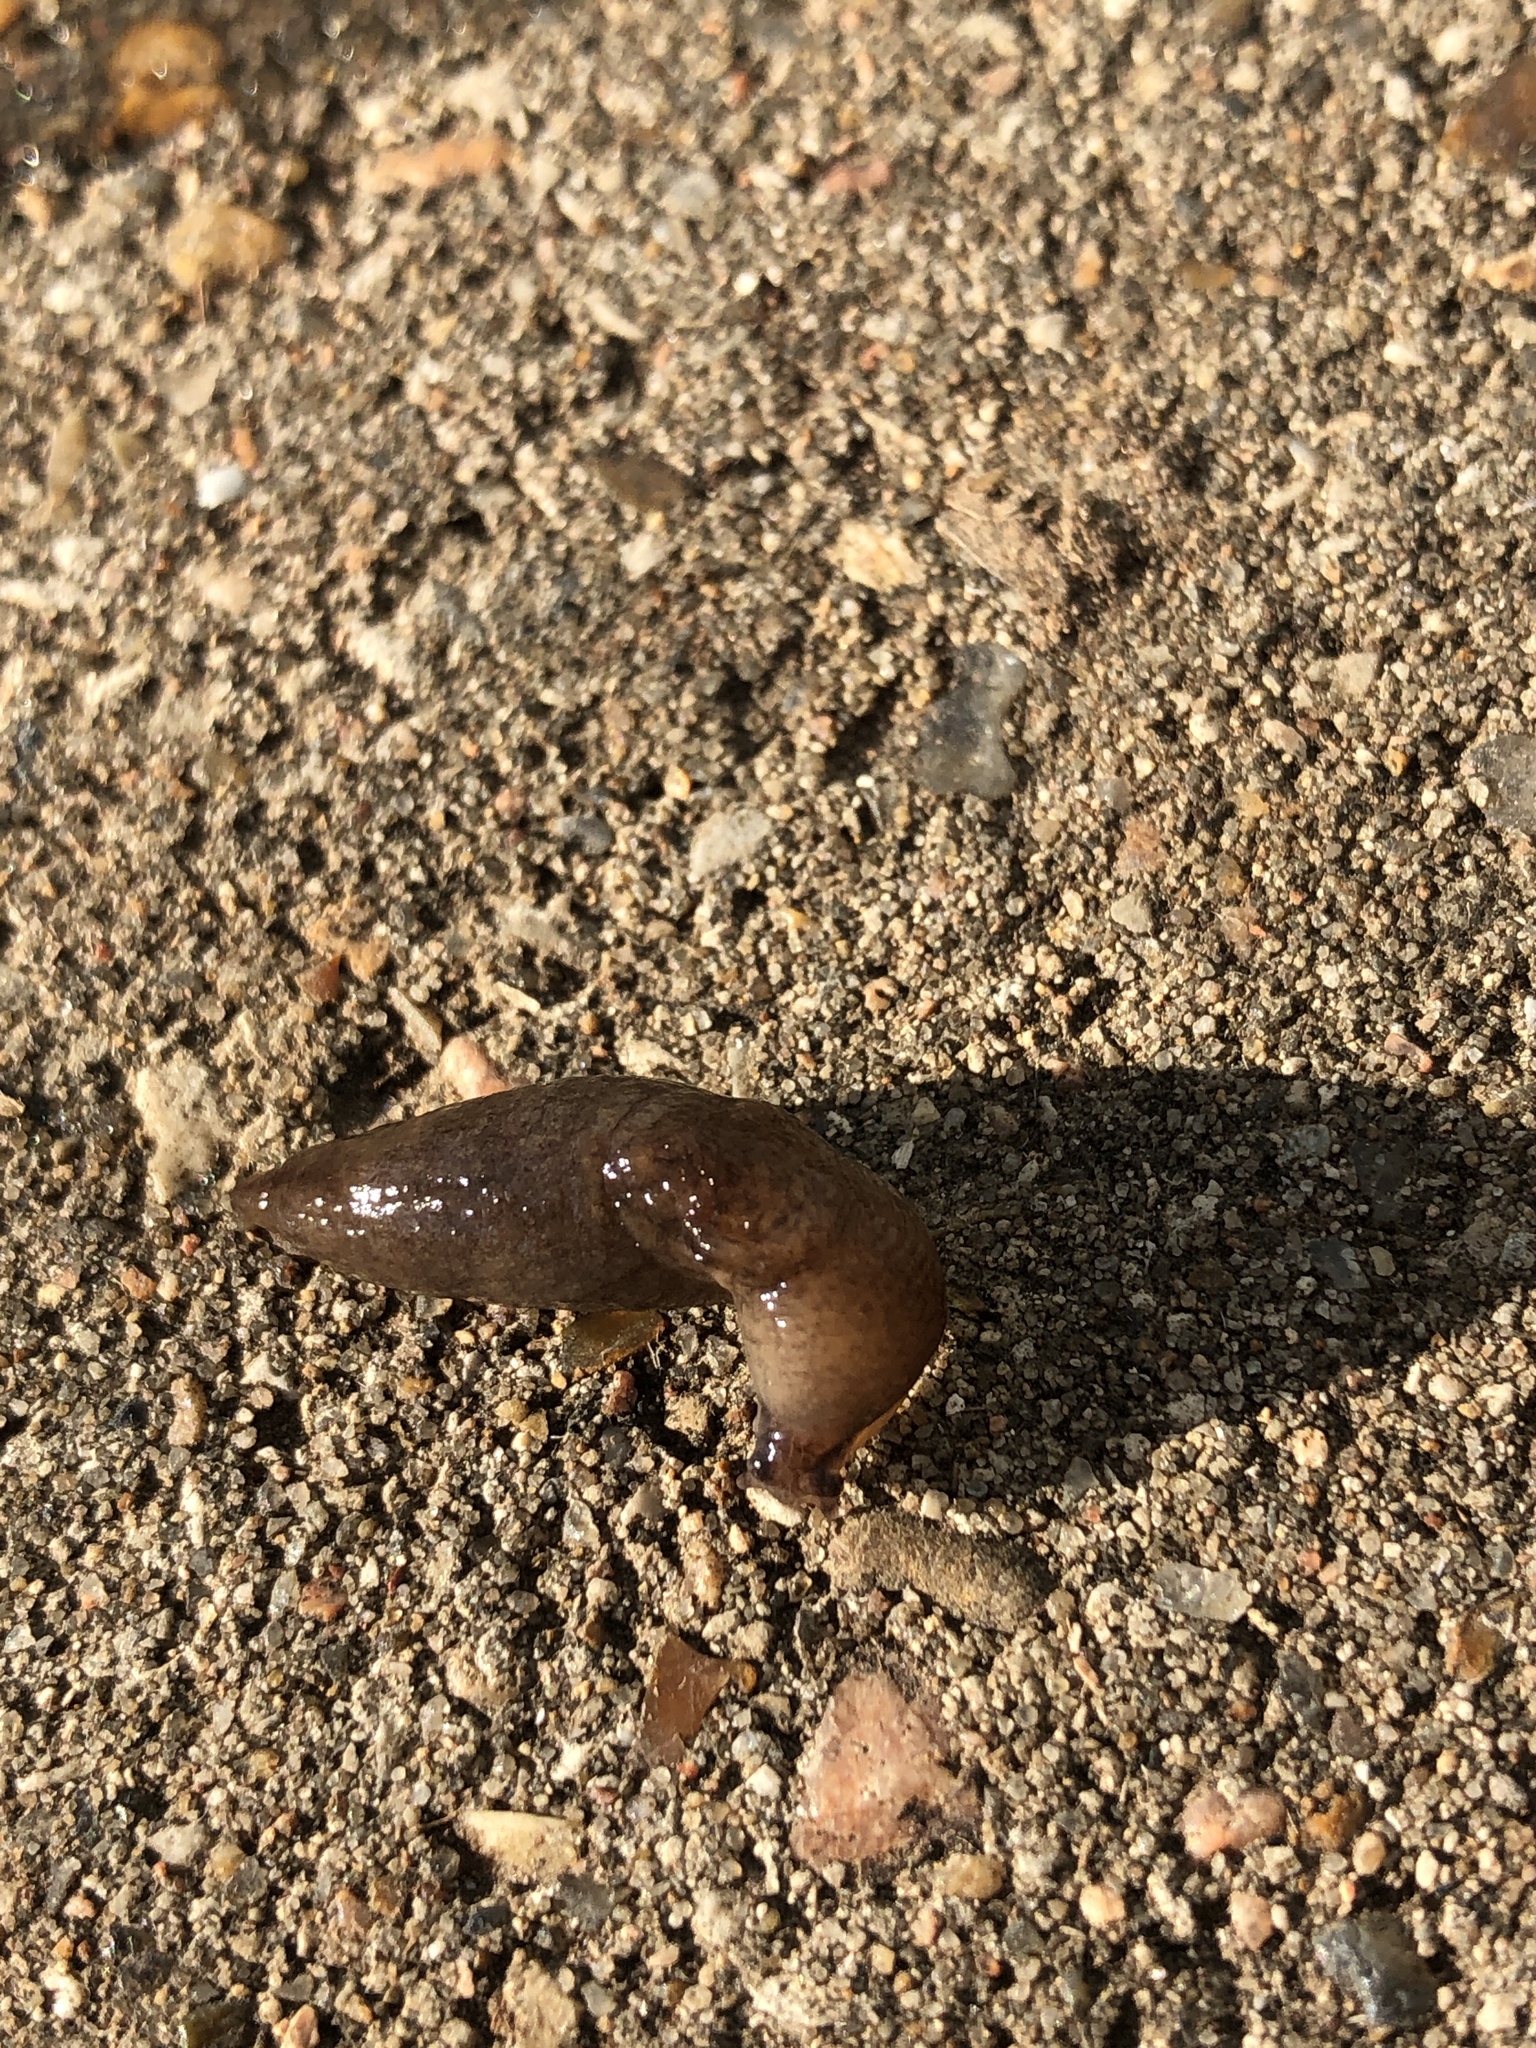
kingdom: Animalia
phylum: Mollusca
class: Gastropoda
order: Stylommatophora
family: Milacidae
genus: Milax
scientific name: Milax gagates
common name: Greenhouse slug
